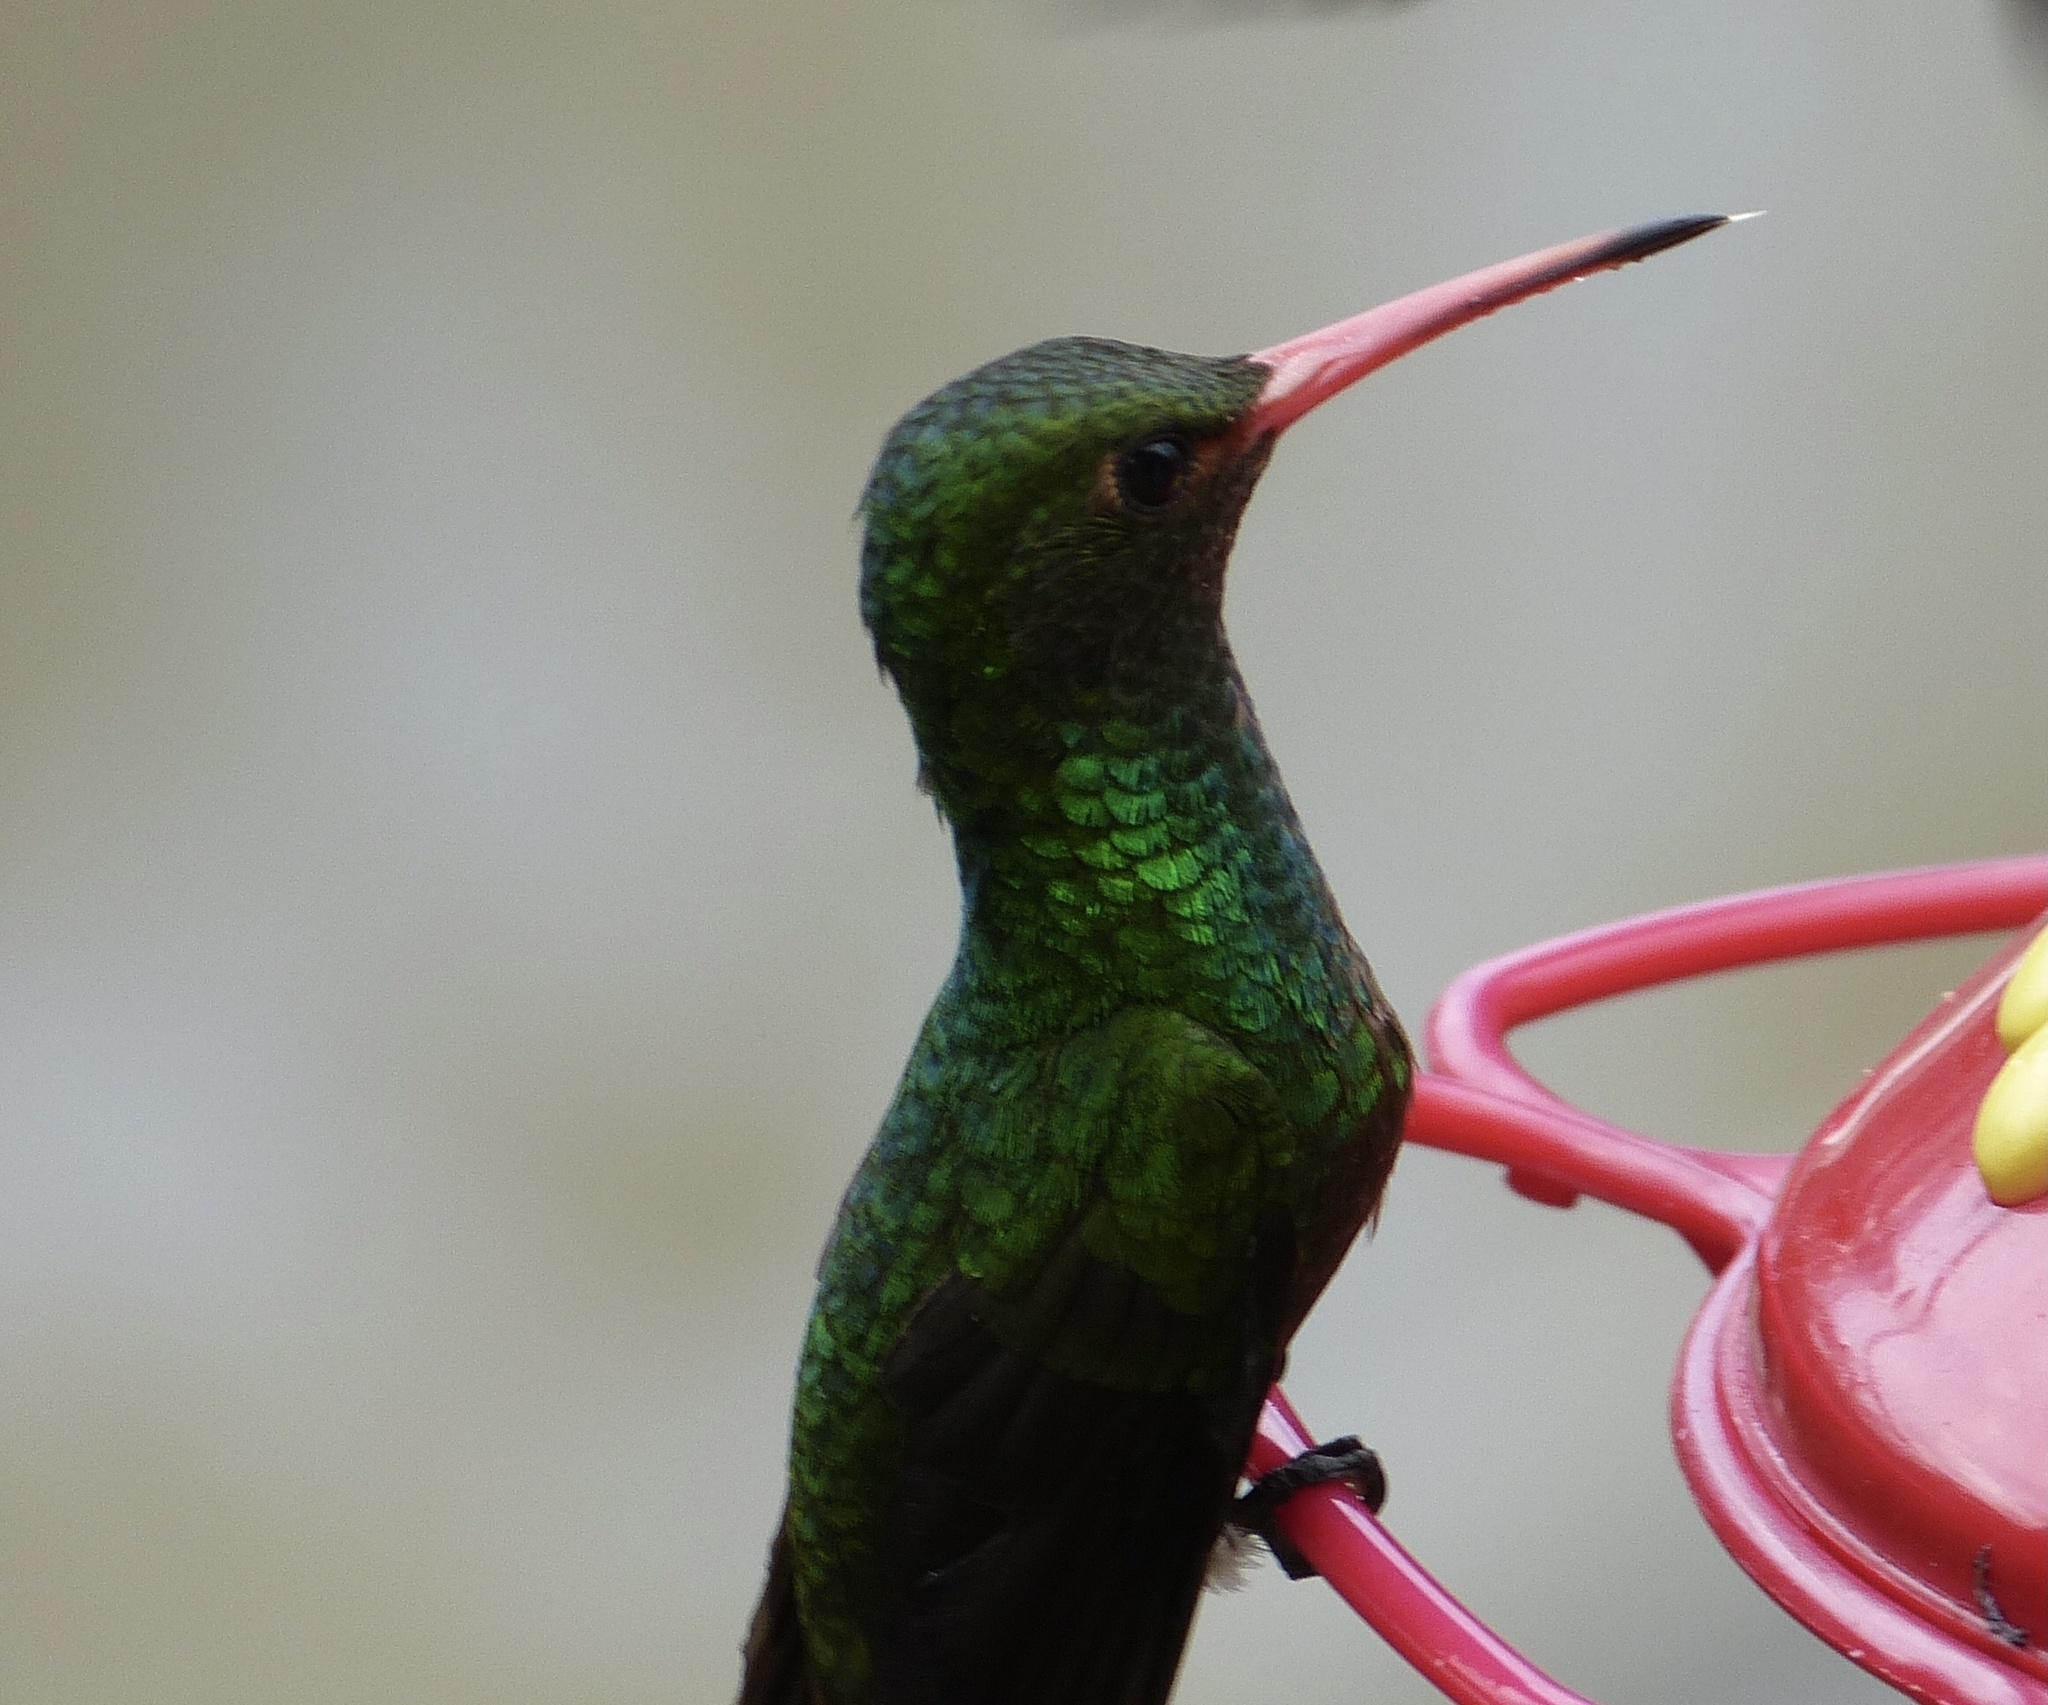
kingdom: Animalia
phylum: Chordata
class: Aves
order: Apodiformes
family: Trochilidae
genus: Amazilia
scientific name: Amazilia tzacatl
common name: Rufous-tailed hummingbird
